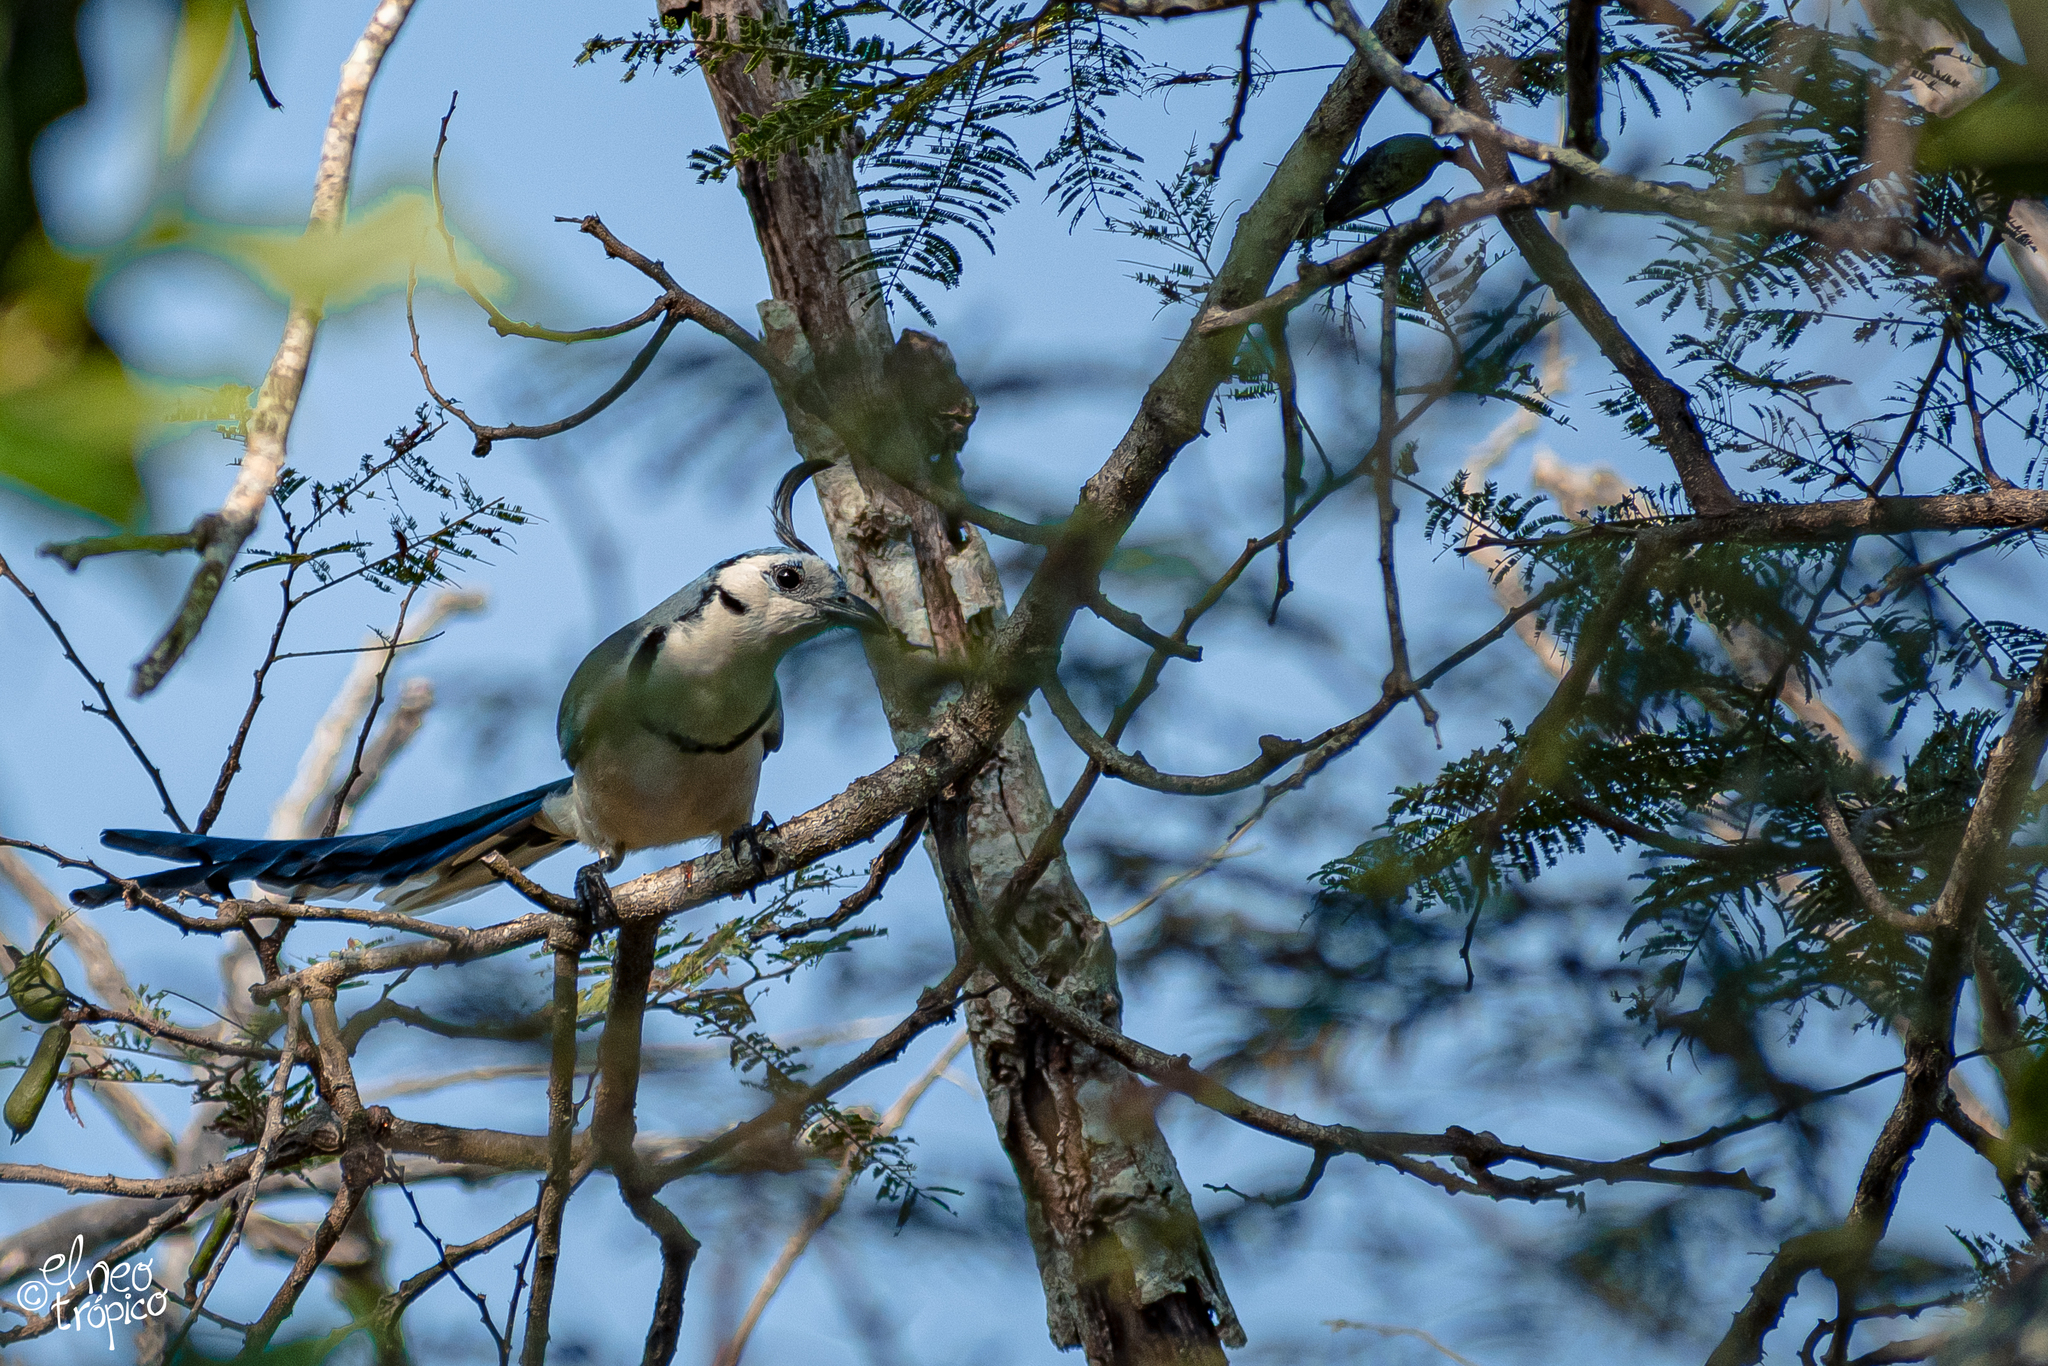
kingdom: Animalia
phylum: Chordata
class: Aves
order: Passeriformes
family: Corvidae
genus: Calocitta
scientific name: Calocitta formosa
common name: White-throated magpie-jay
